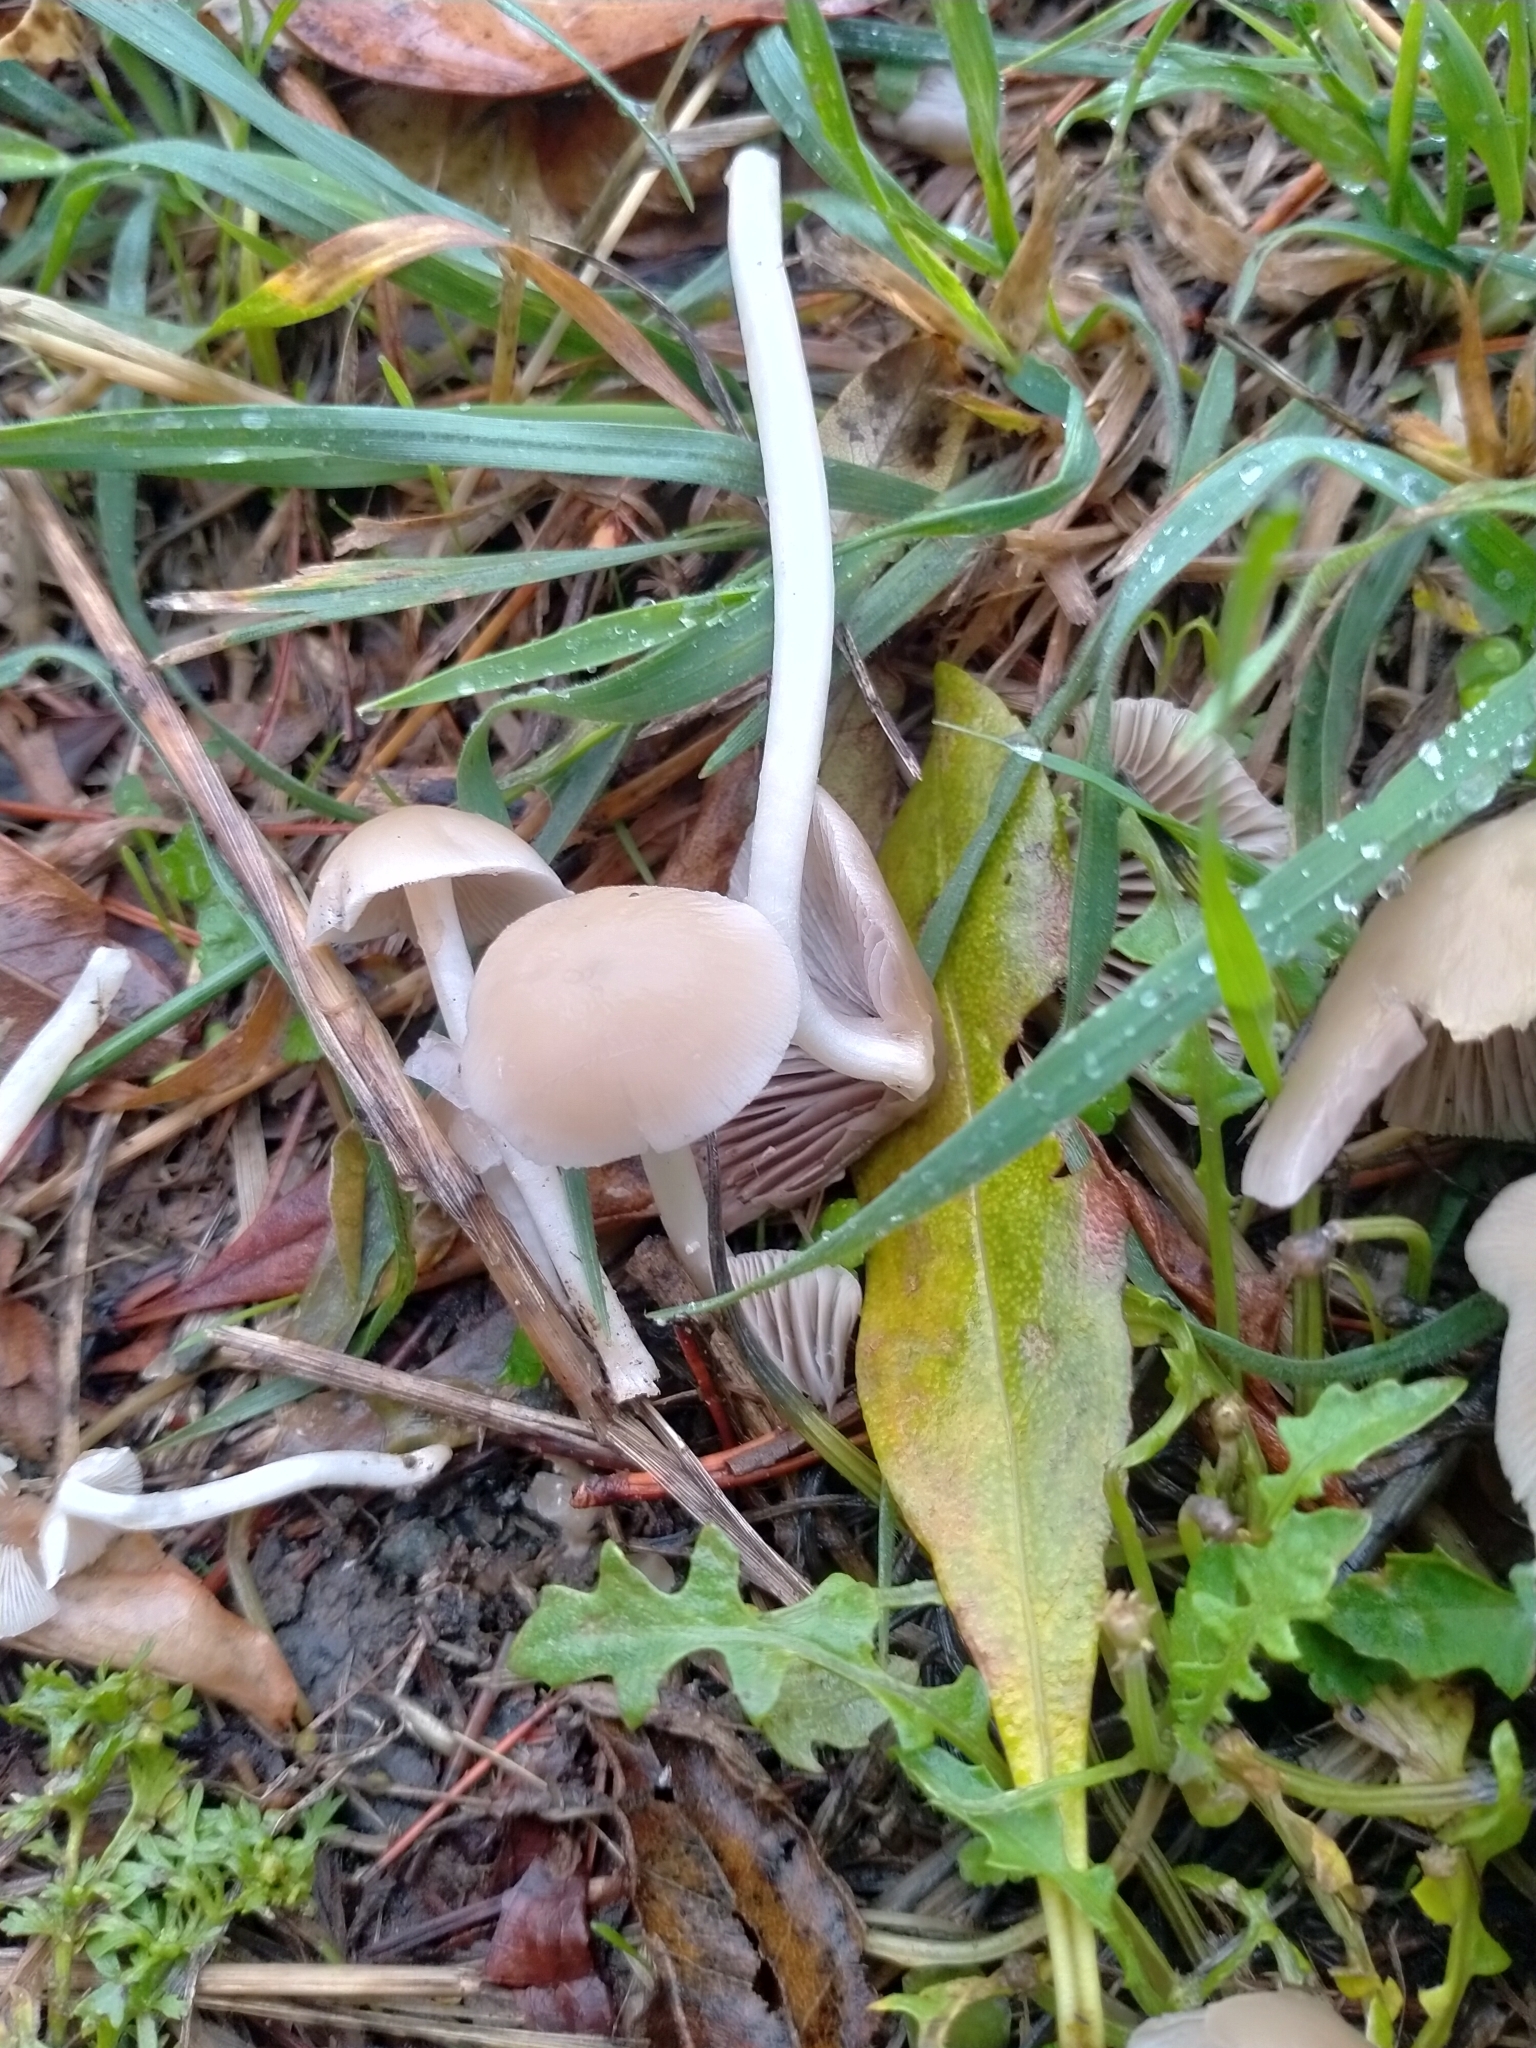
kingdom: Fungi
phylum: Basidiomycota
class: Agaricomycetes
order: Agaricales
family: Psathyrellaceae
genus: Candolleomyces
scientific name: Candolleomyces candolleanus
